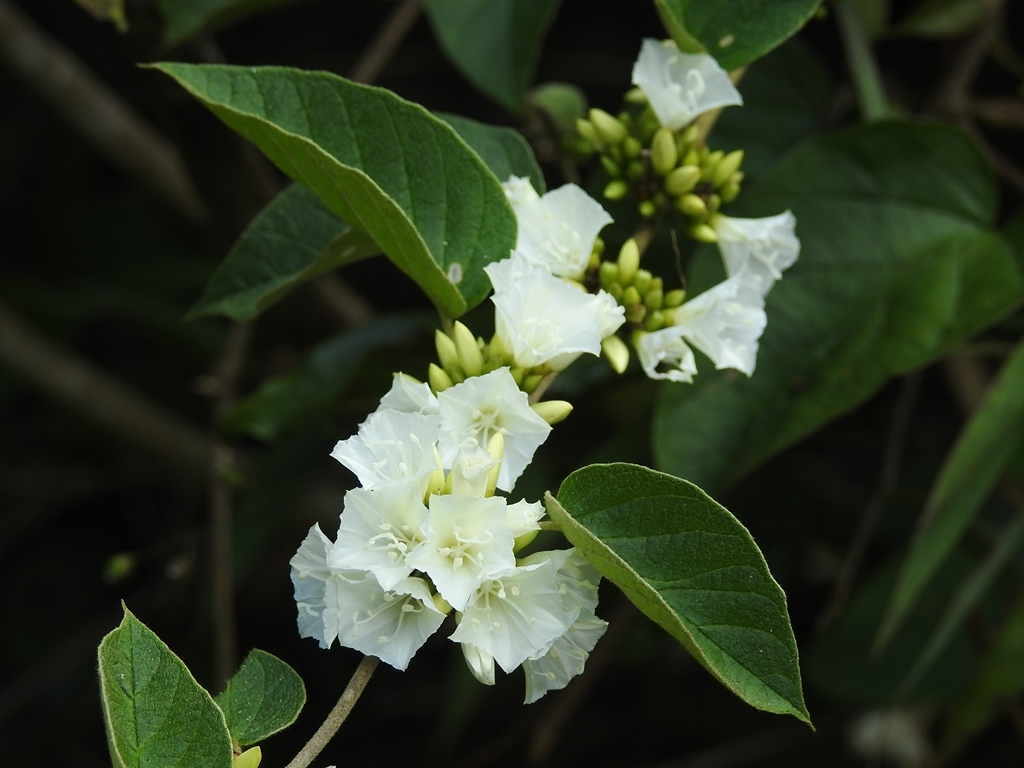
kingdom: Plantae
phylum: Tracheophyta
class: Magnoliopsida
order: Solanales
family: Convolvulaceae
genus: Jacquemontia
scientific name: Jacquemontia nodiflora
